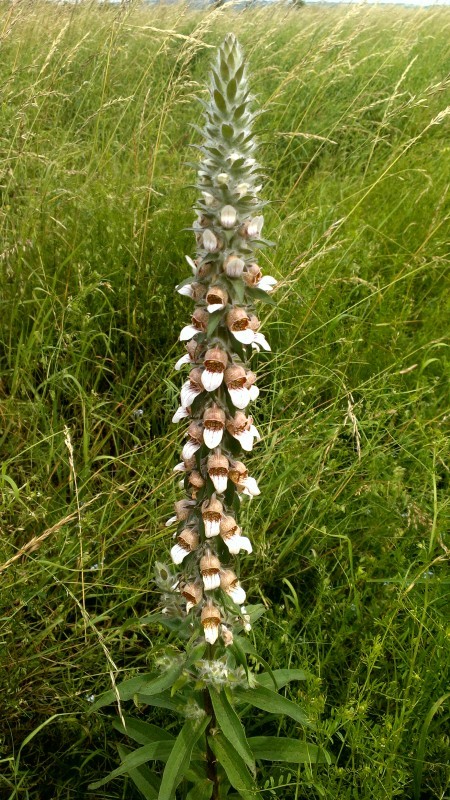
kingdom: Plantae
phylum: Tracheophyta
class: Magnoliopsida
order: Lamiales
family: Plantaginaceae
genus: Digitalis
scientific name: Digitalis lanata
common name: Grecian foxglove
